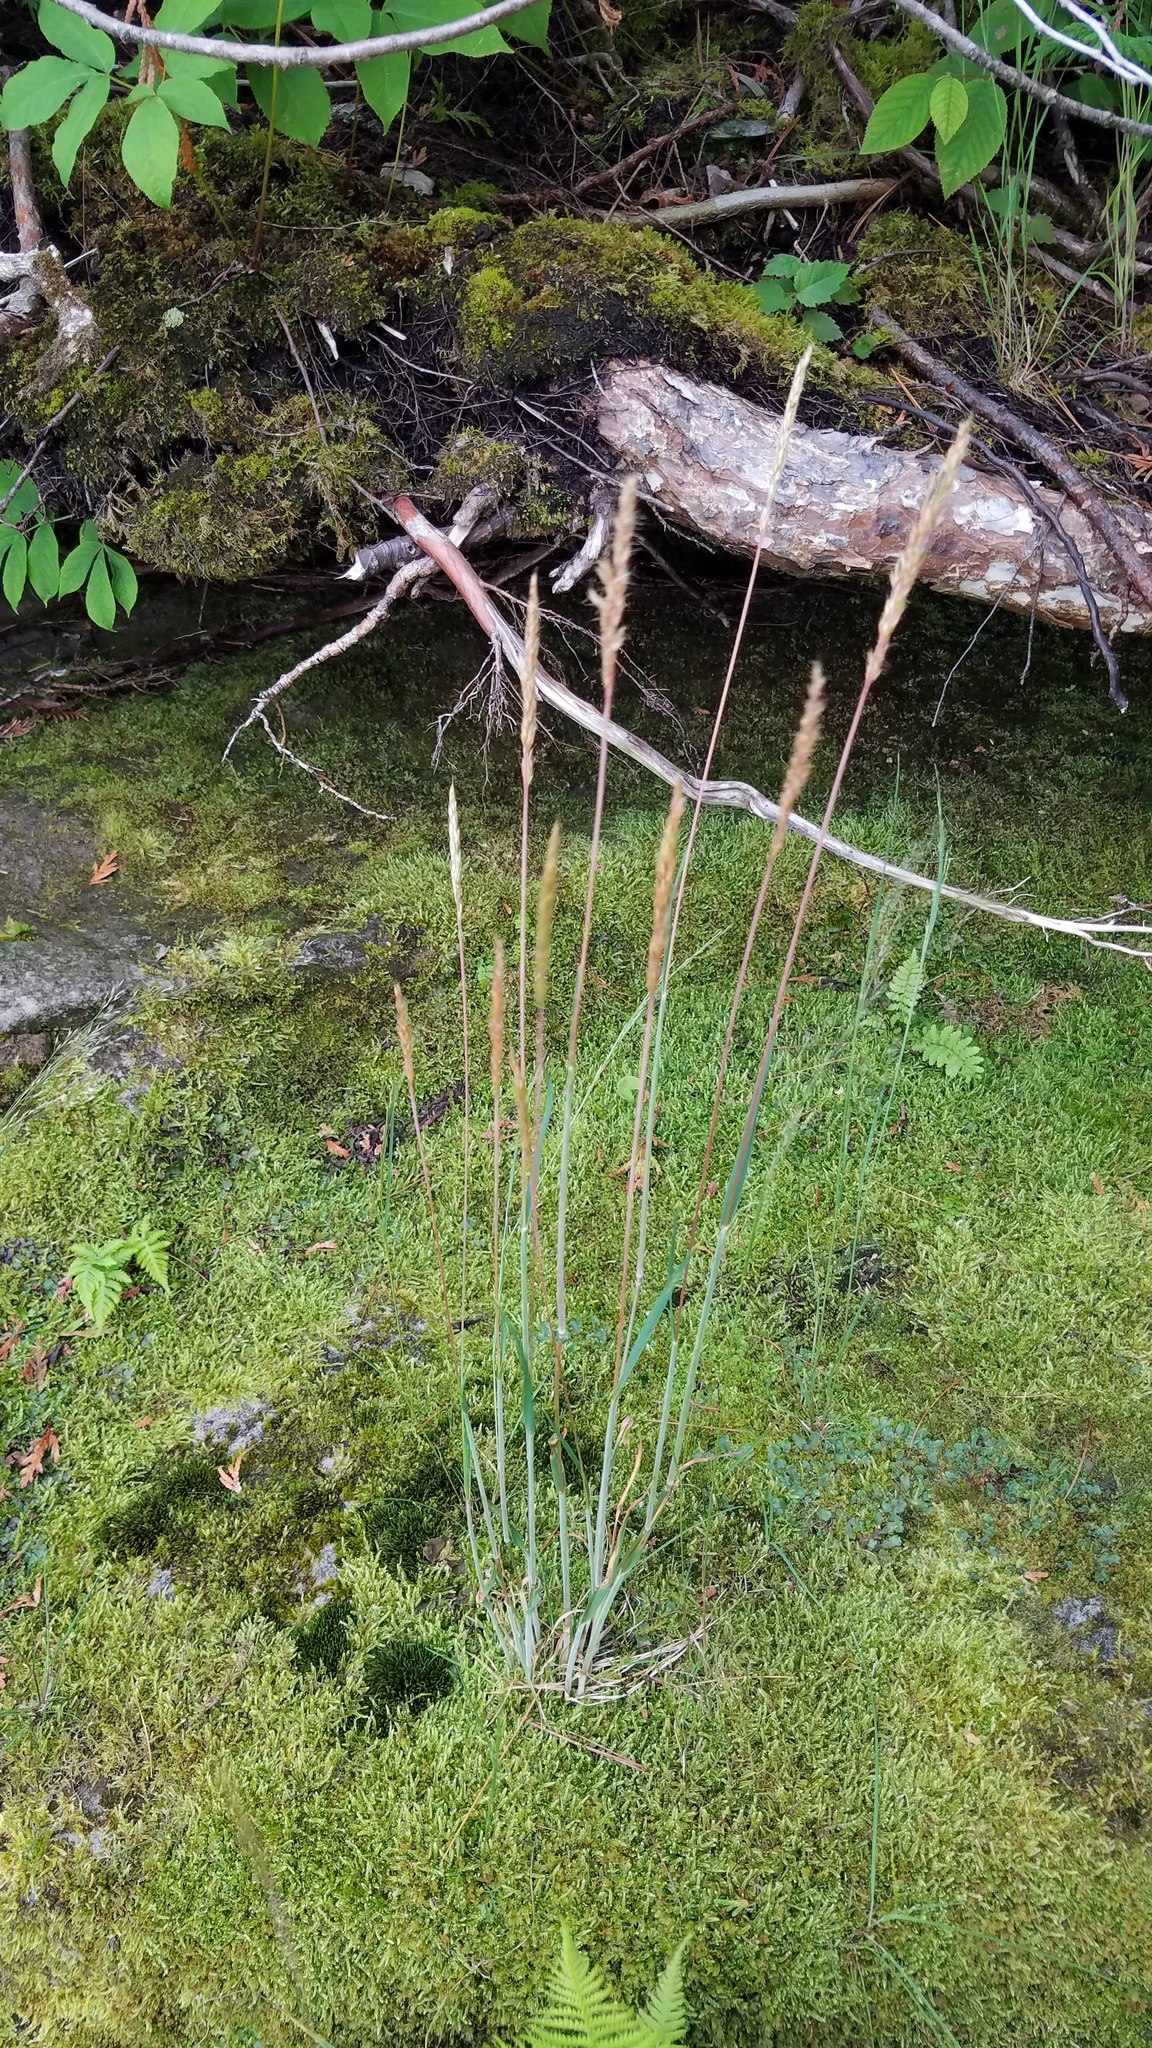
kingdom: Plantae
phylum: Tracheophyta
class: Liliopsida
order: Poales
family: Poaceae
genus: Koeleria
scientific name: Koeleria spicata
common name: Mountain trisetum
